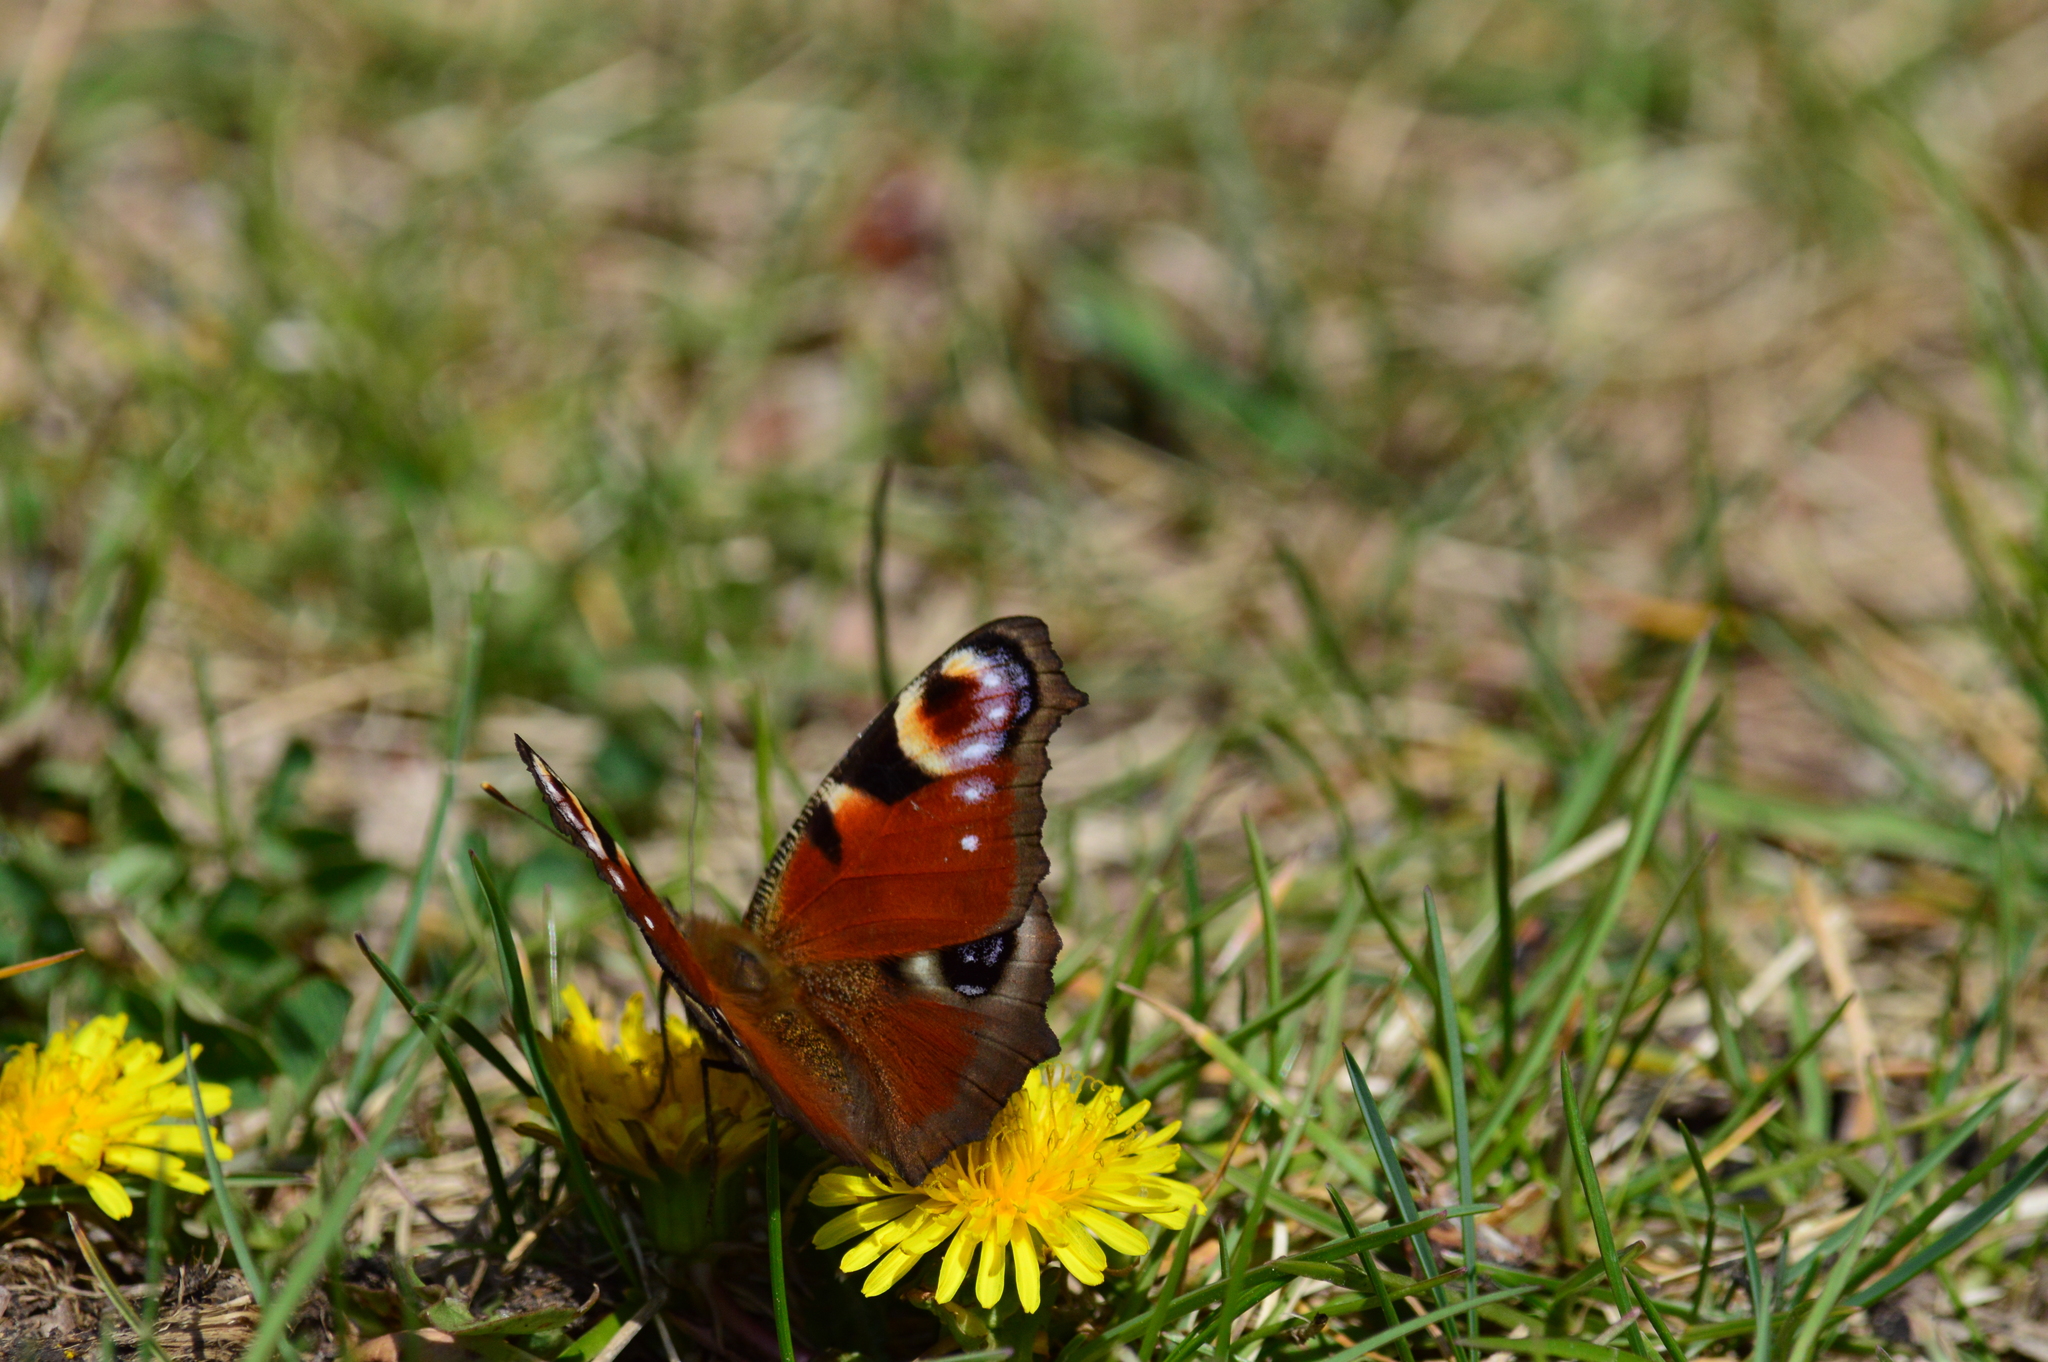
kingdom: Animalia
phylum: Arthropoda
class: Insecta
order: Lepidoptera
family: Nymphalidae
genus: Aglais
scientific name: Aglais io
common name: Peacock
